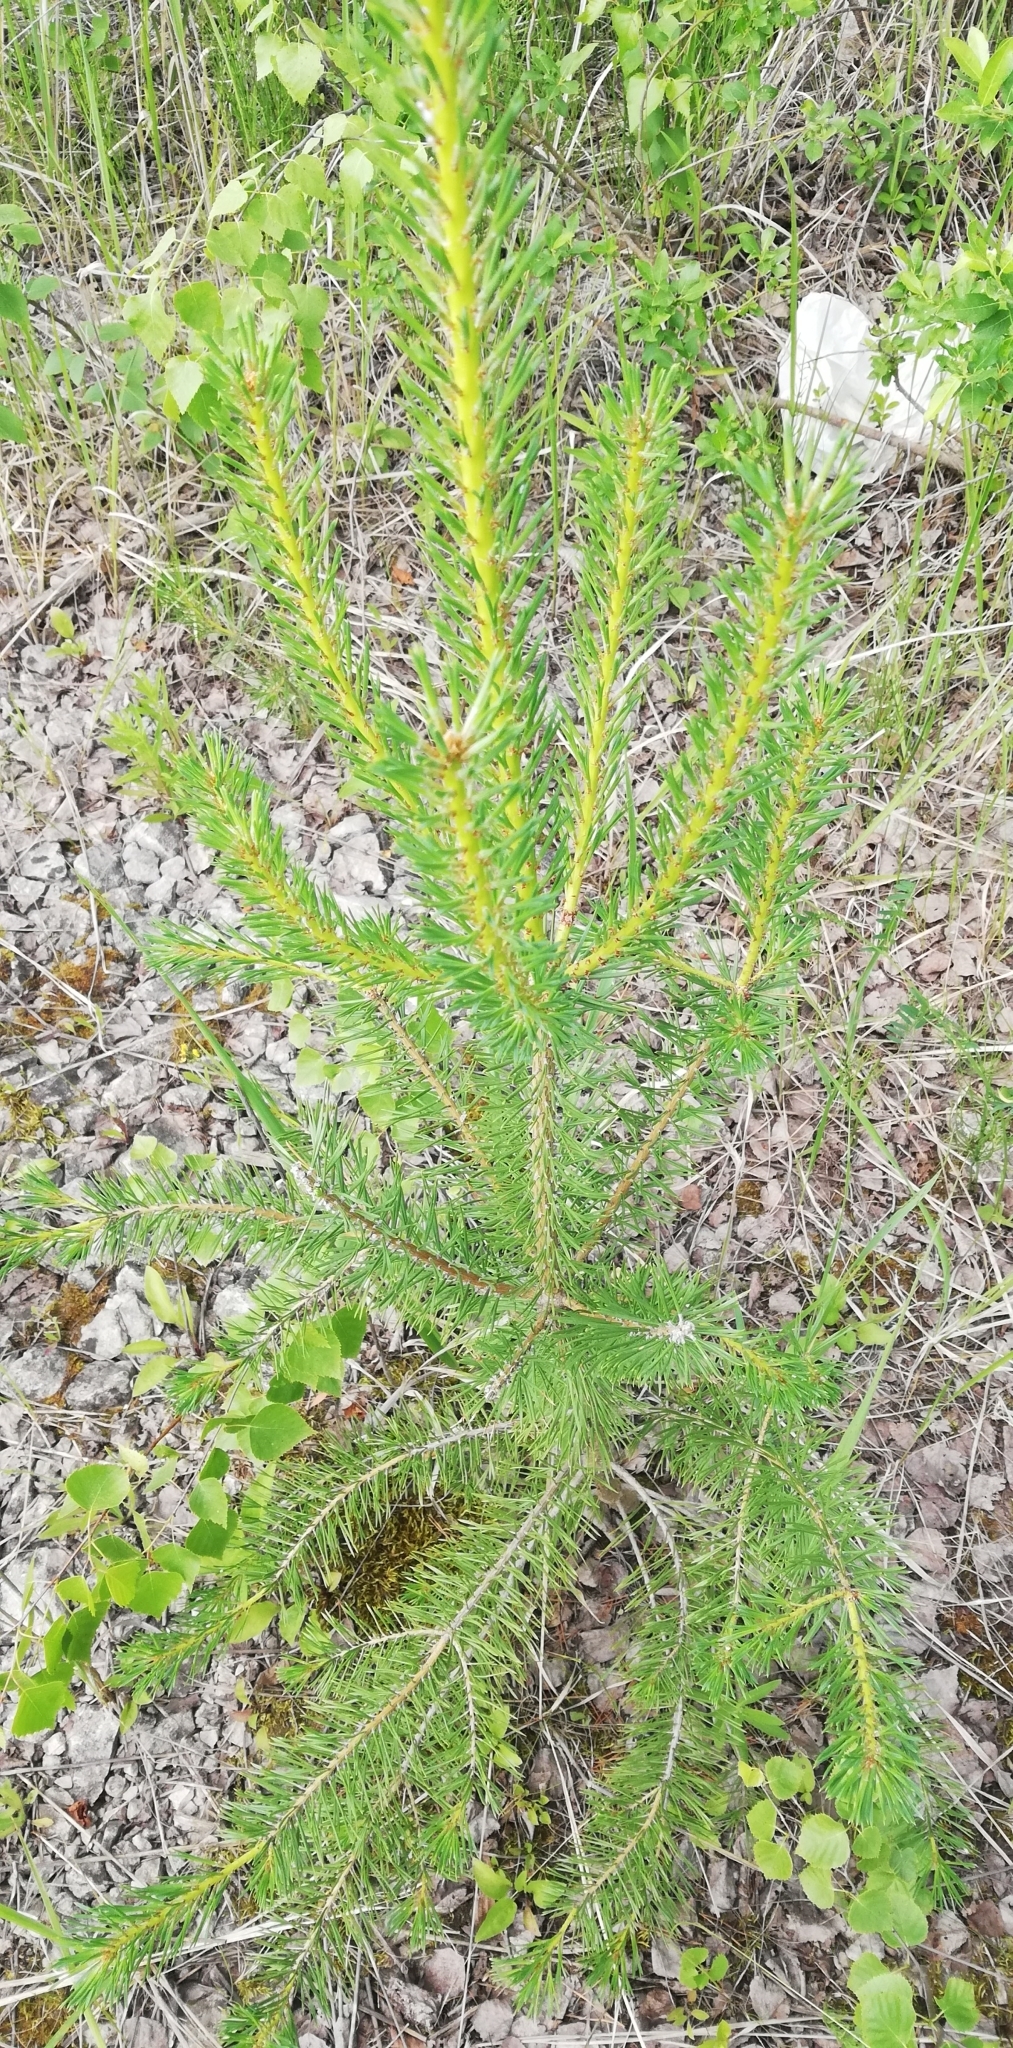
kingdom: Plantae
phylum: Tracheophyta
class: Pinopsida
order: Pinales
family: Pinaceae
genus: Pinus
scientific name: Pinus sylvestris
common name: Scots pine
